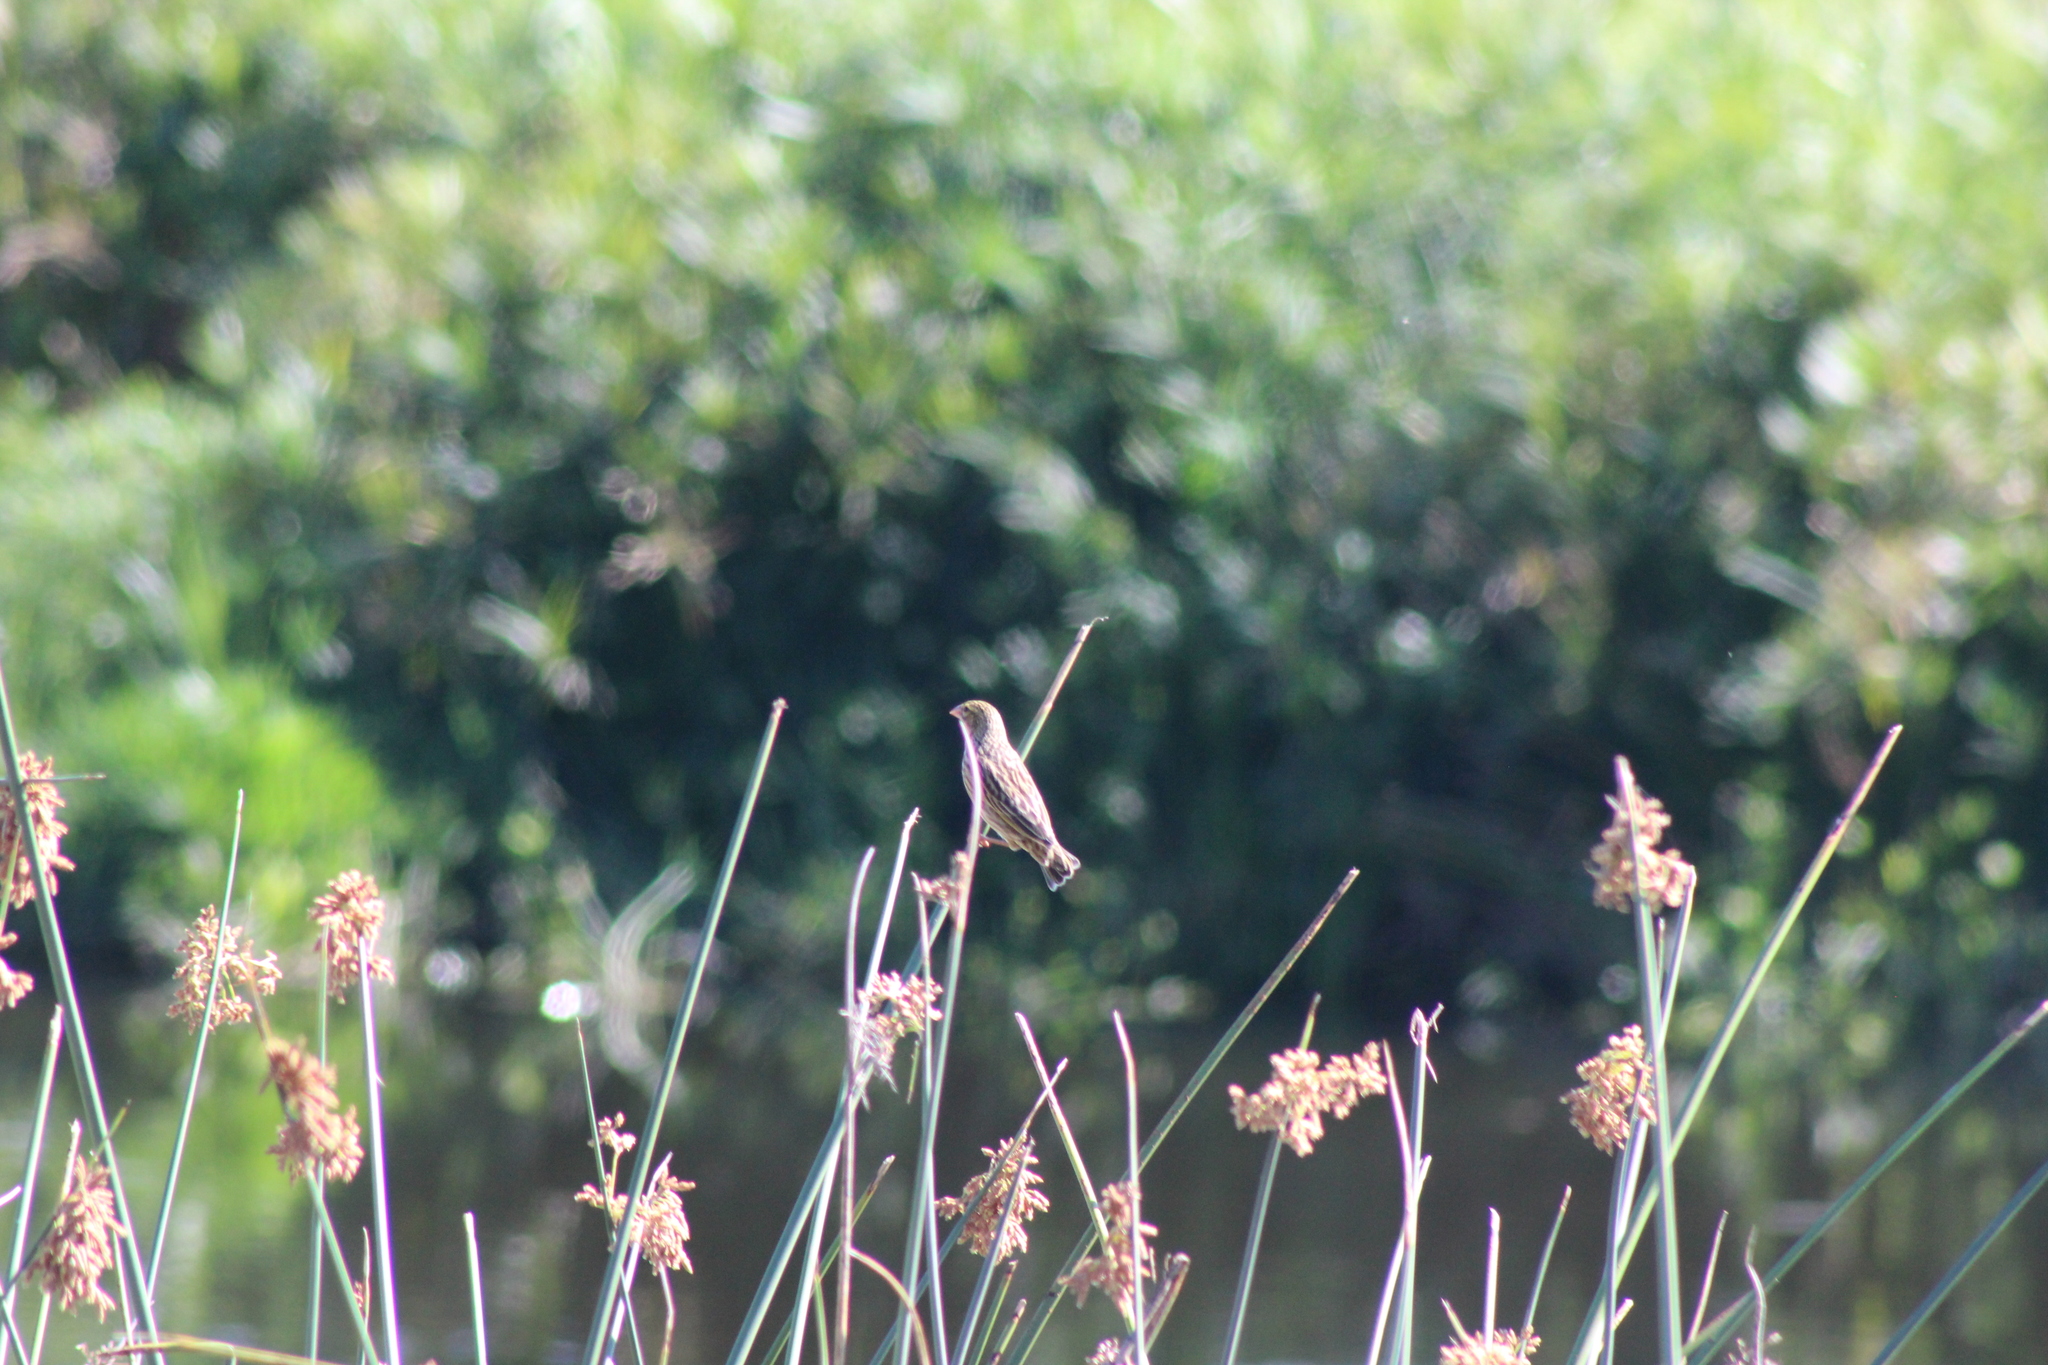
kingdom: Animalia
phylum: Chordata
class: Aves
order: Passeriformes
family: Ploceidae
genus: Euplectes
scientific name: Euplectes orix
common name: Southern red bishop
